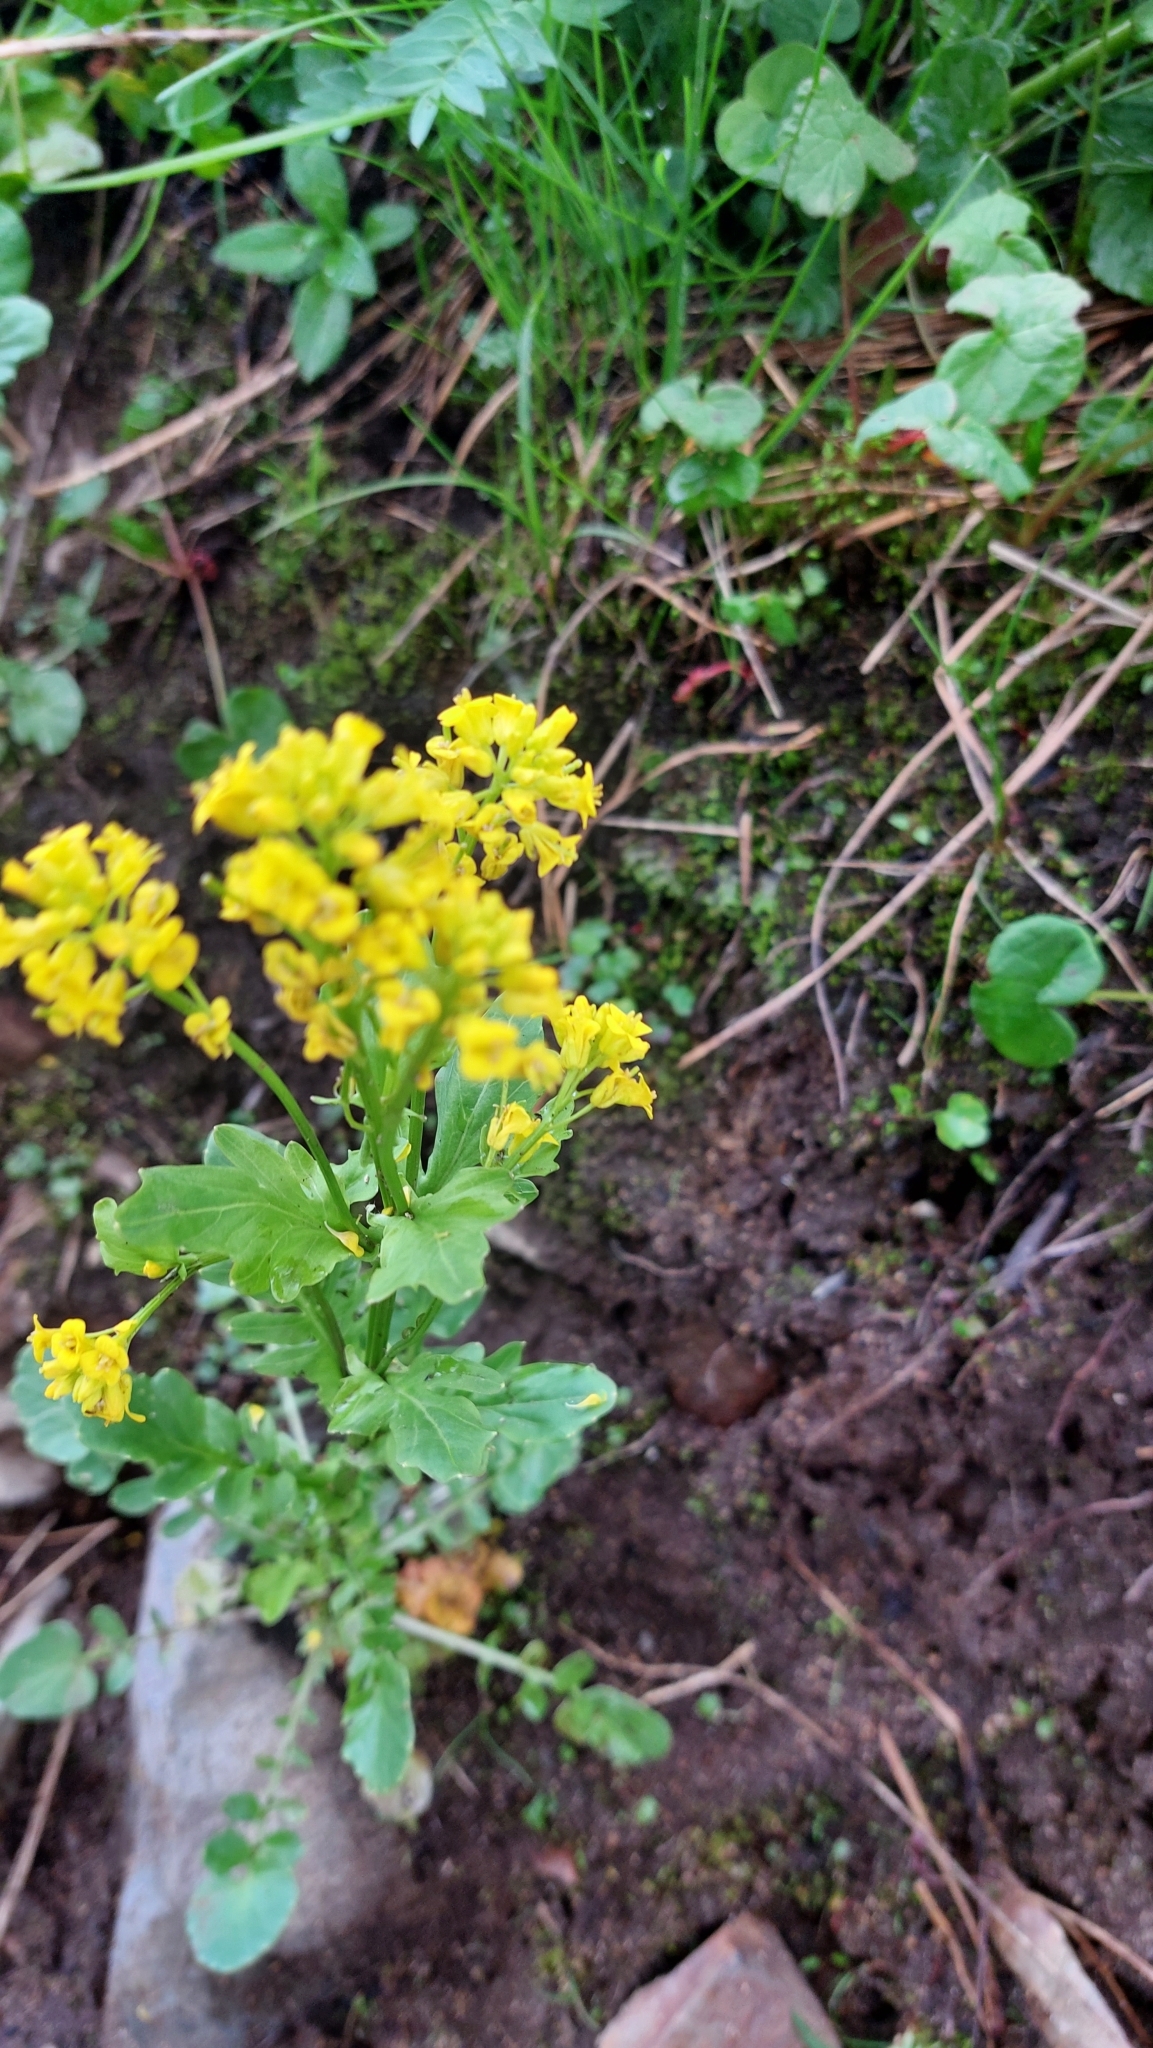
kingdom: Plantae
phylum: Tracheophyta
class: Magnoliopsida
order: Brassicales
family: Brassicaceae
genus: Barbarea
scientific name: Barbarea orthoceras
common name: American wintercress
